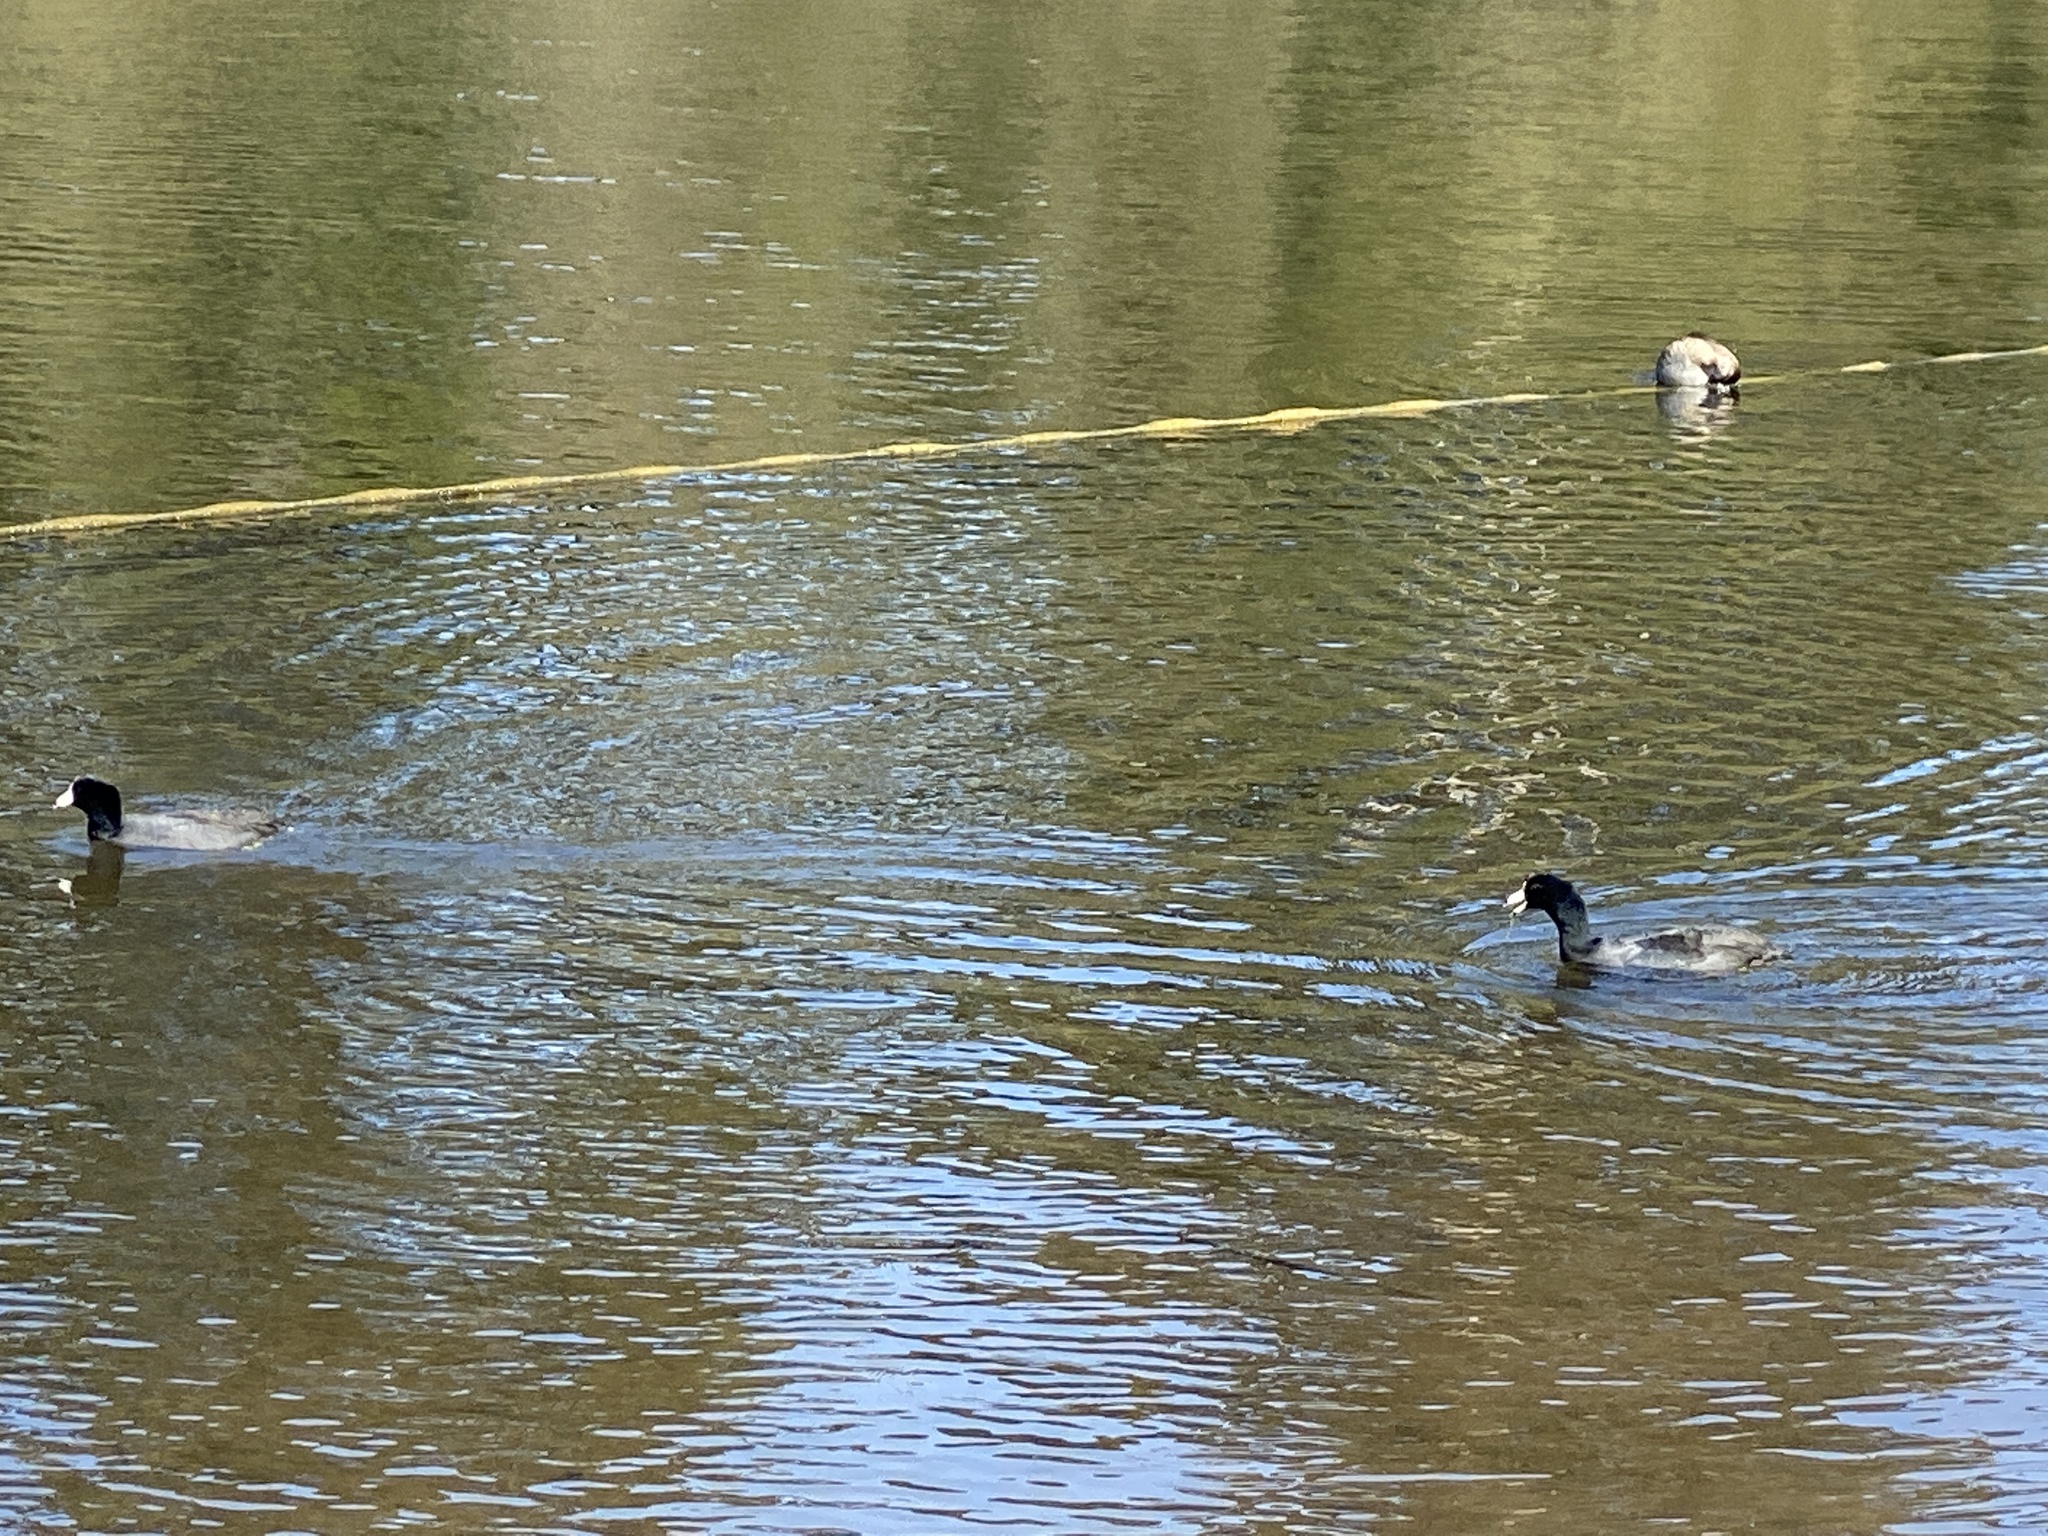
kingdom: Animalia
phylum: Chordata
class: Aves
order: Gruiformes
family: Rallidae
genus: Fulica
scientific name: Fulica americana
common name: American coot
